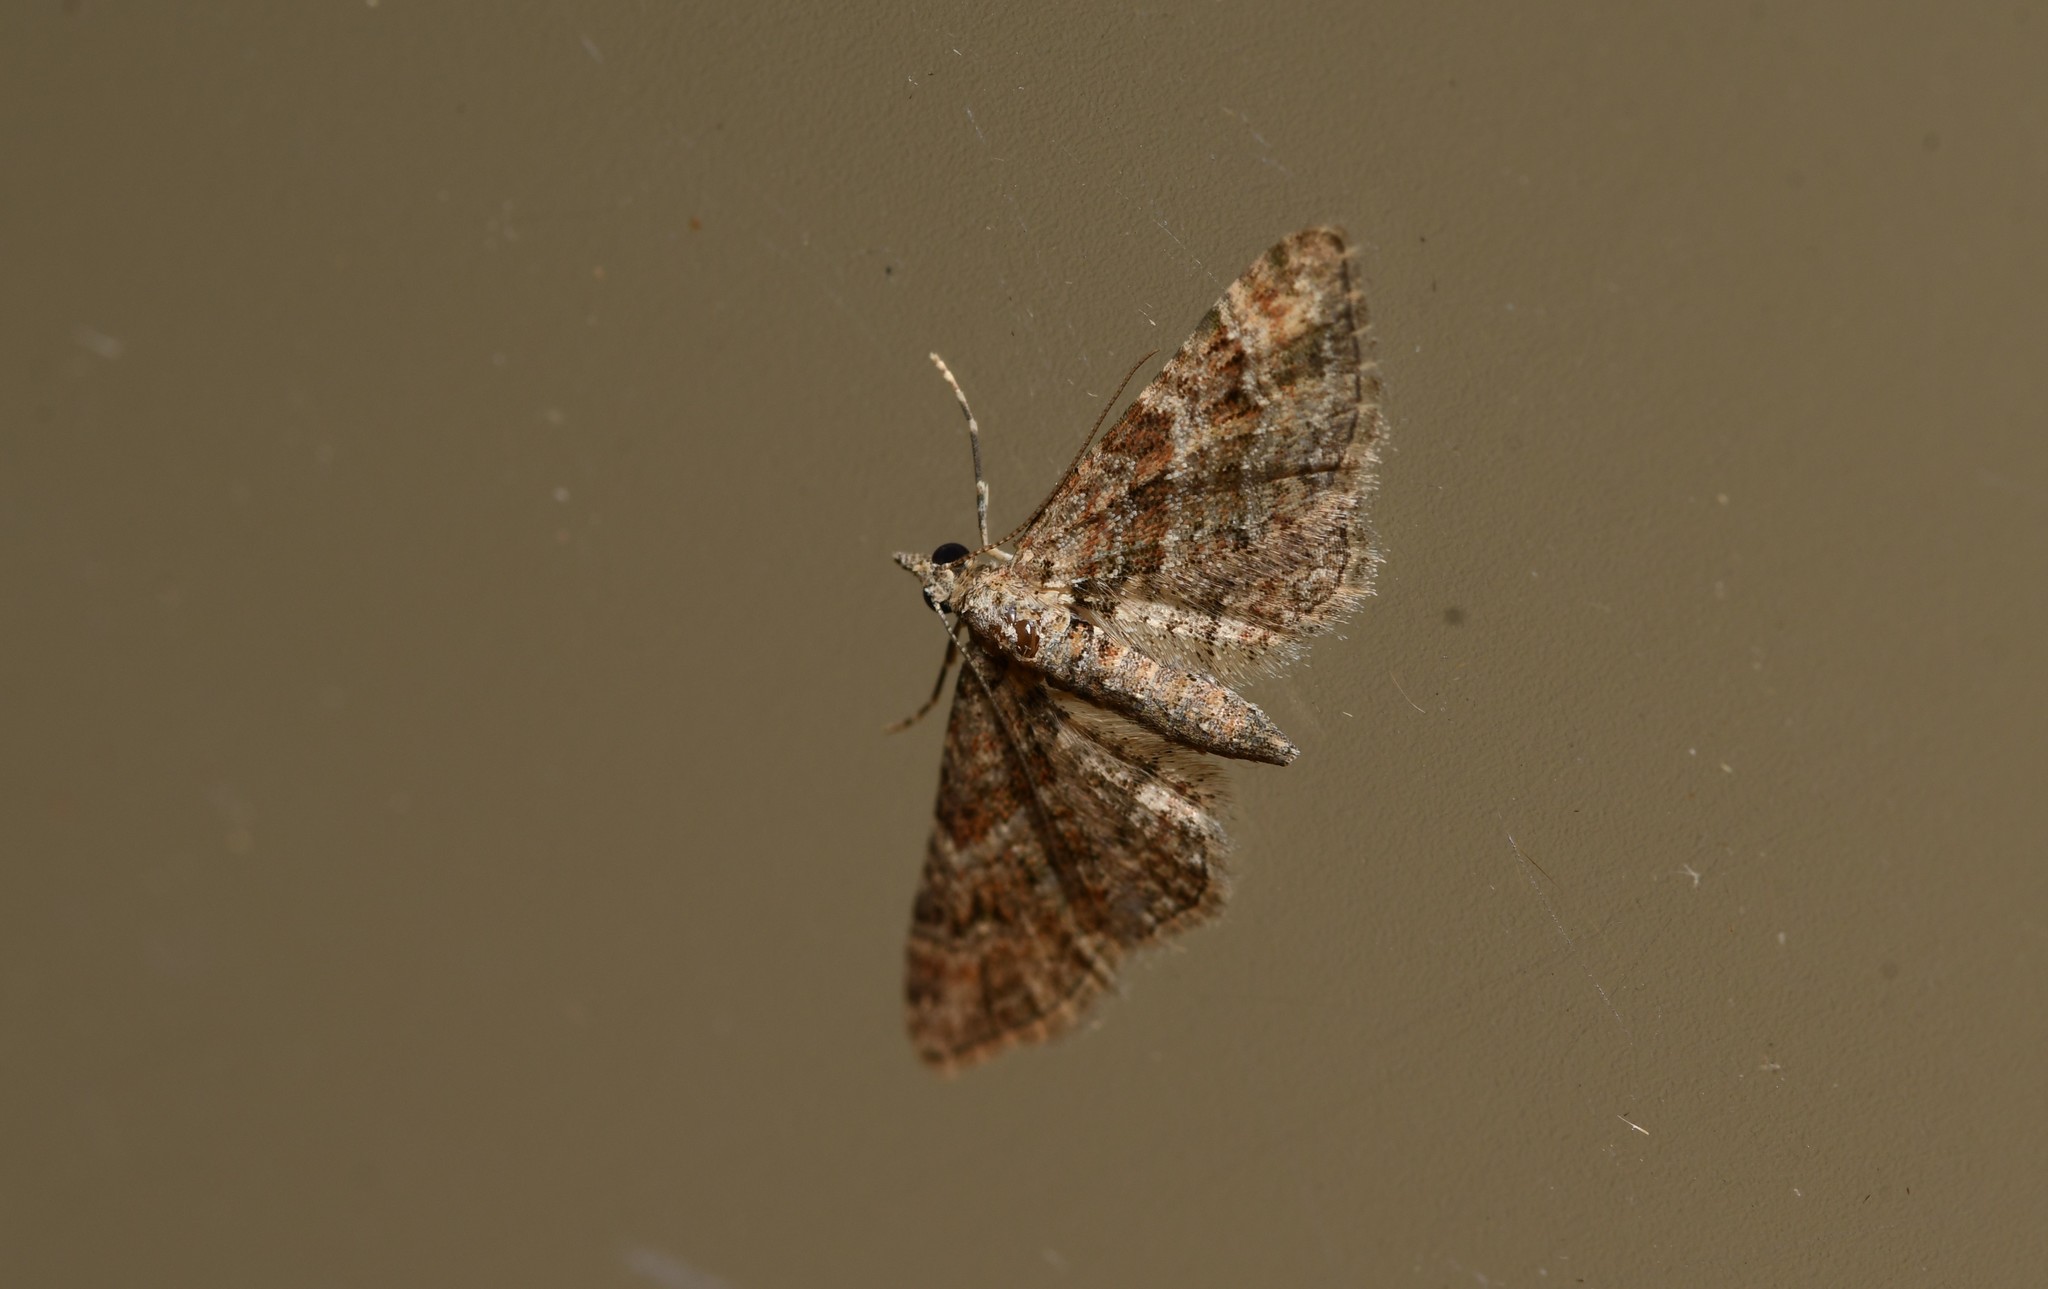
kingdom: Animalia
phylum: Arthropoda
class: Insecta
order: Lepidoptera
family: Geometridae
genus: Gymnoscelis
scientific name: Gymnoscelis rufifasciata
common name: Double-striped pug
